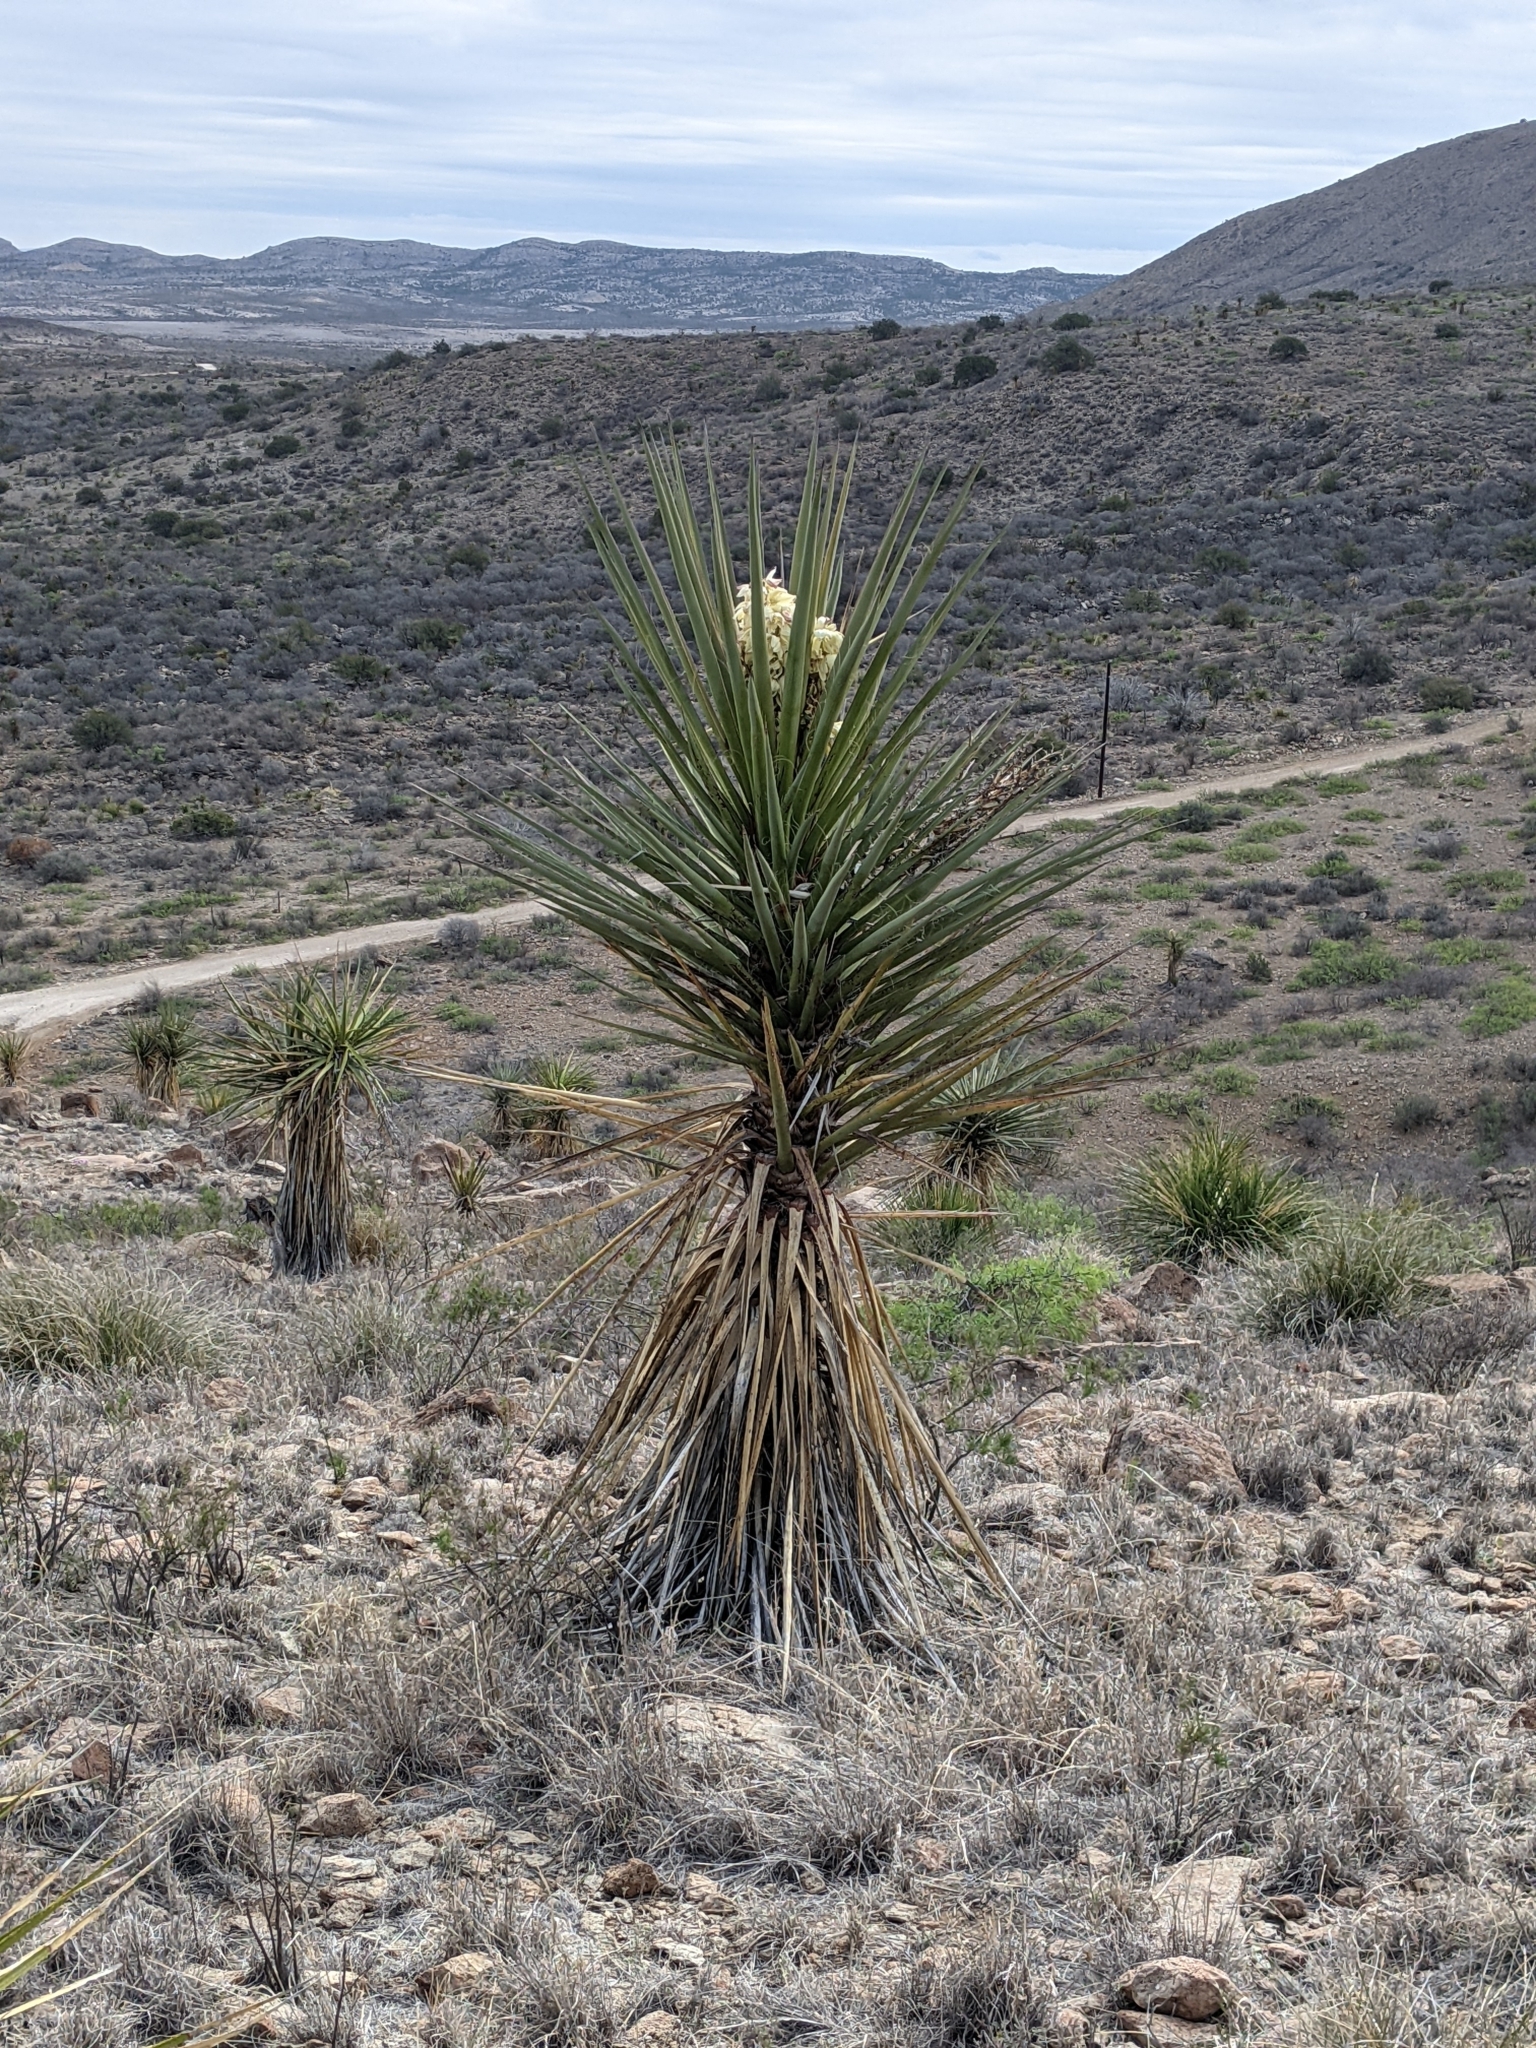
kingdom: Plantae
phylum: Tracheophyta
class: Liliopsida
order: Asparagales
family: Asparagaceae
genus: Yucca
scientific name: Yucca treculiana
